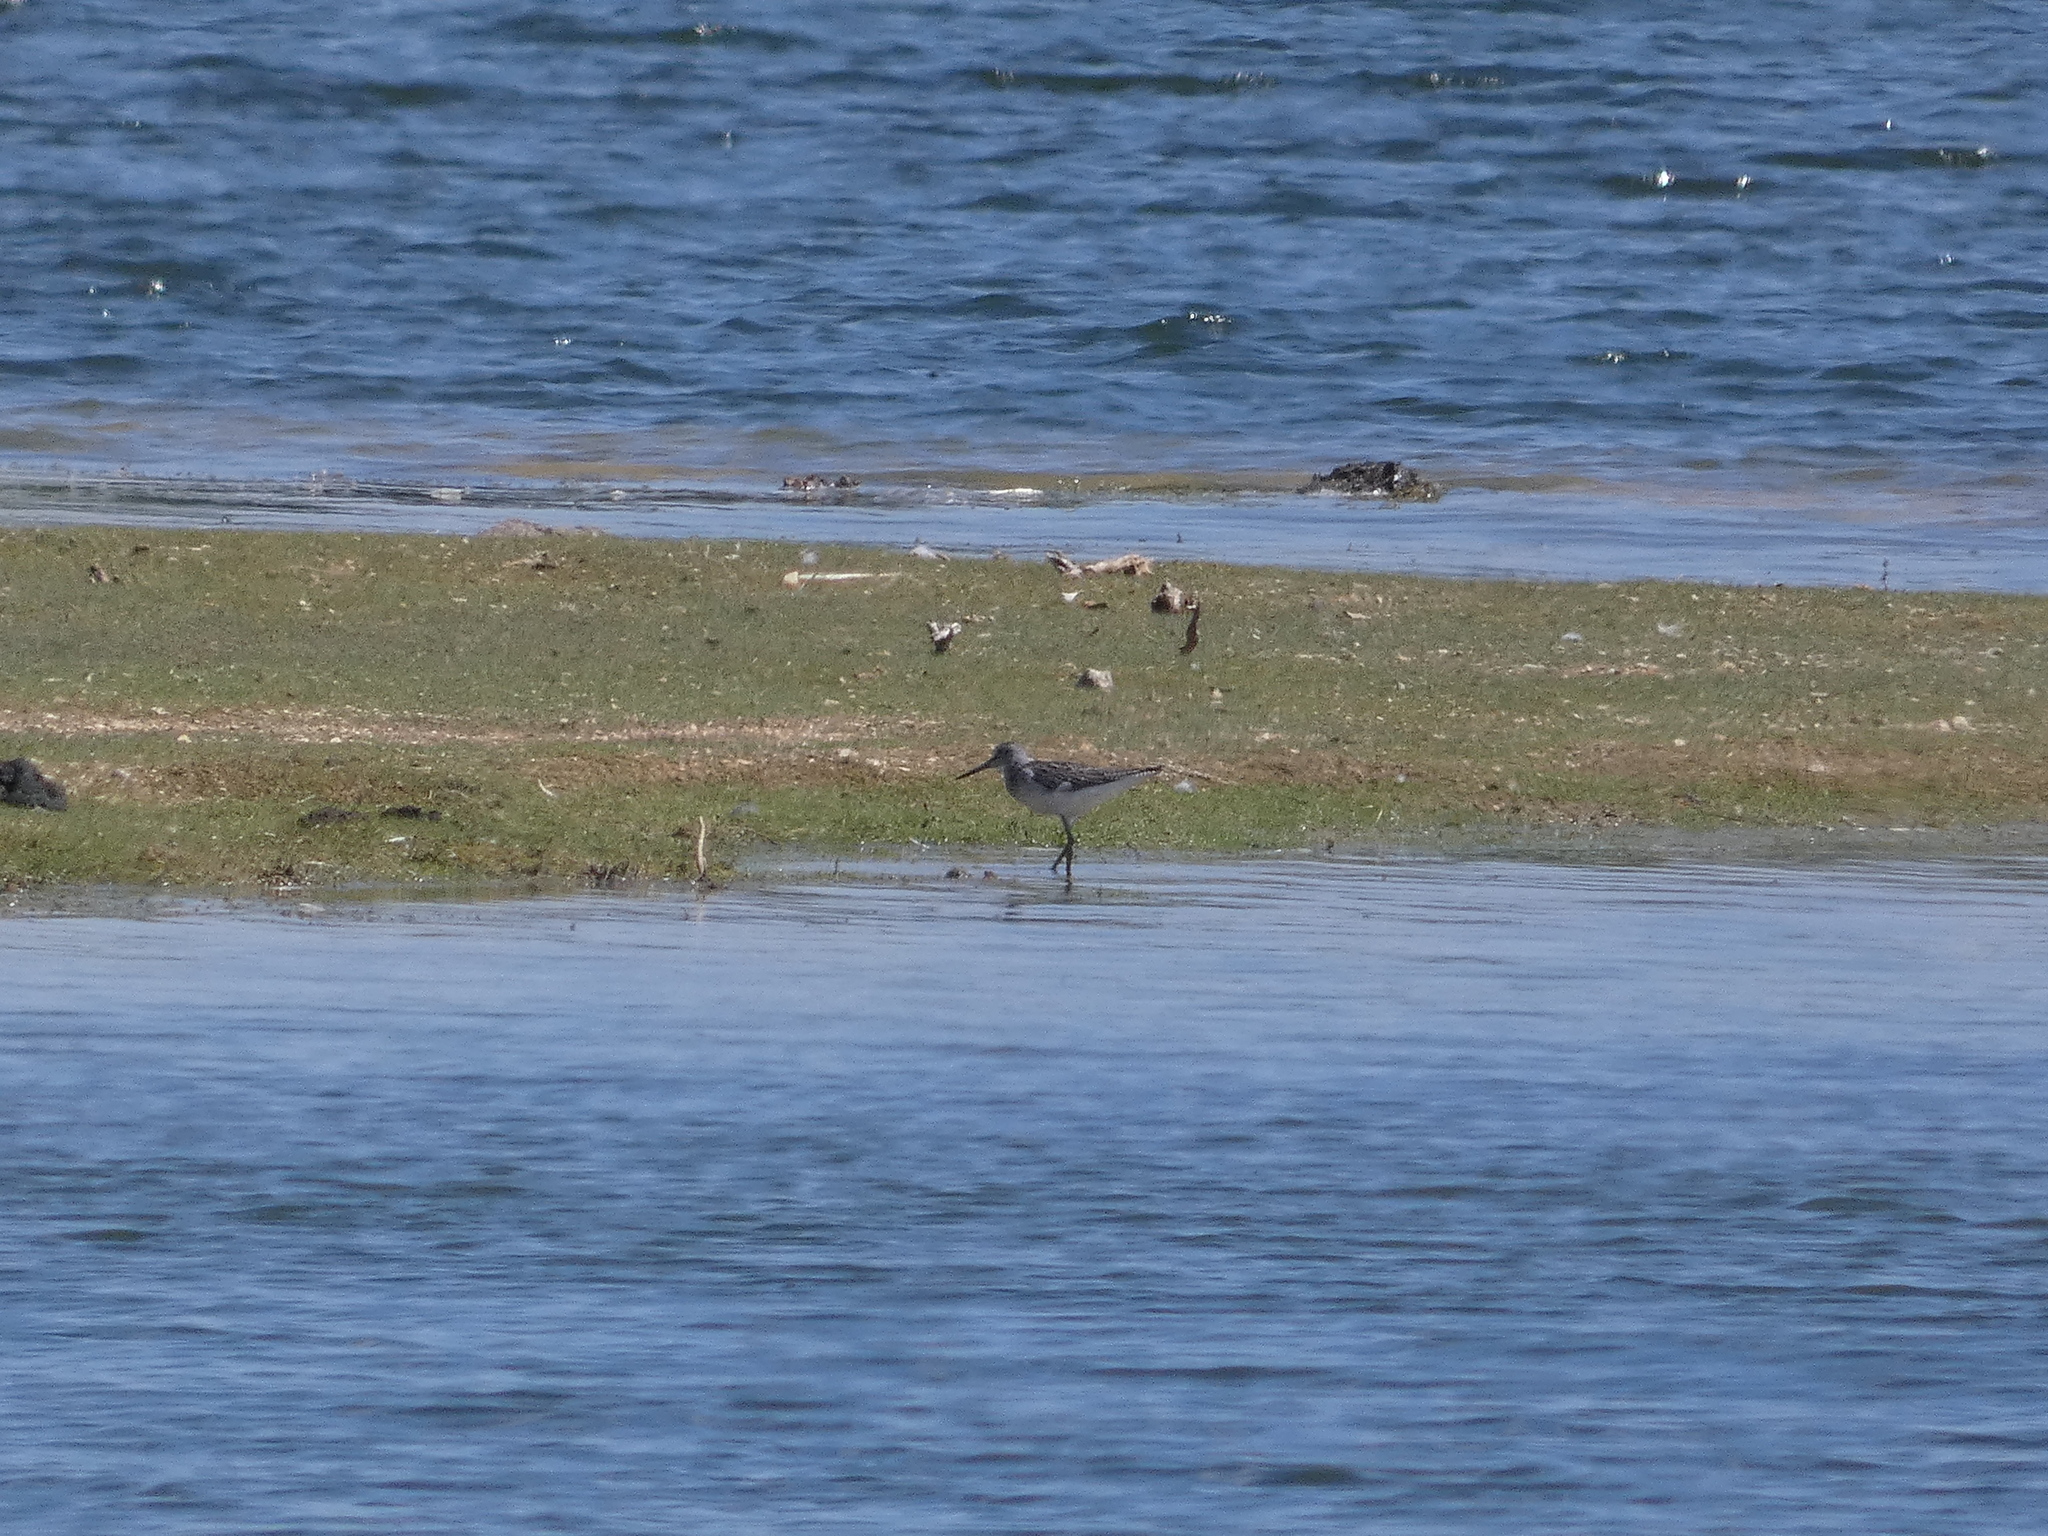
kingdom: Animalia
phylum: Chordata
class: Aves
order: Charadriiformes
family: Scolopacidae
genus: Tringa
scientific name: Tringa nebularia
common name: Common greenshank
